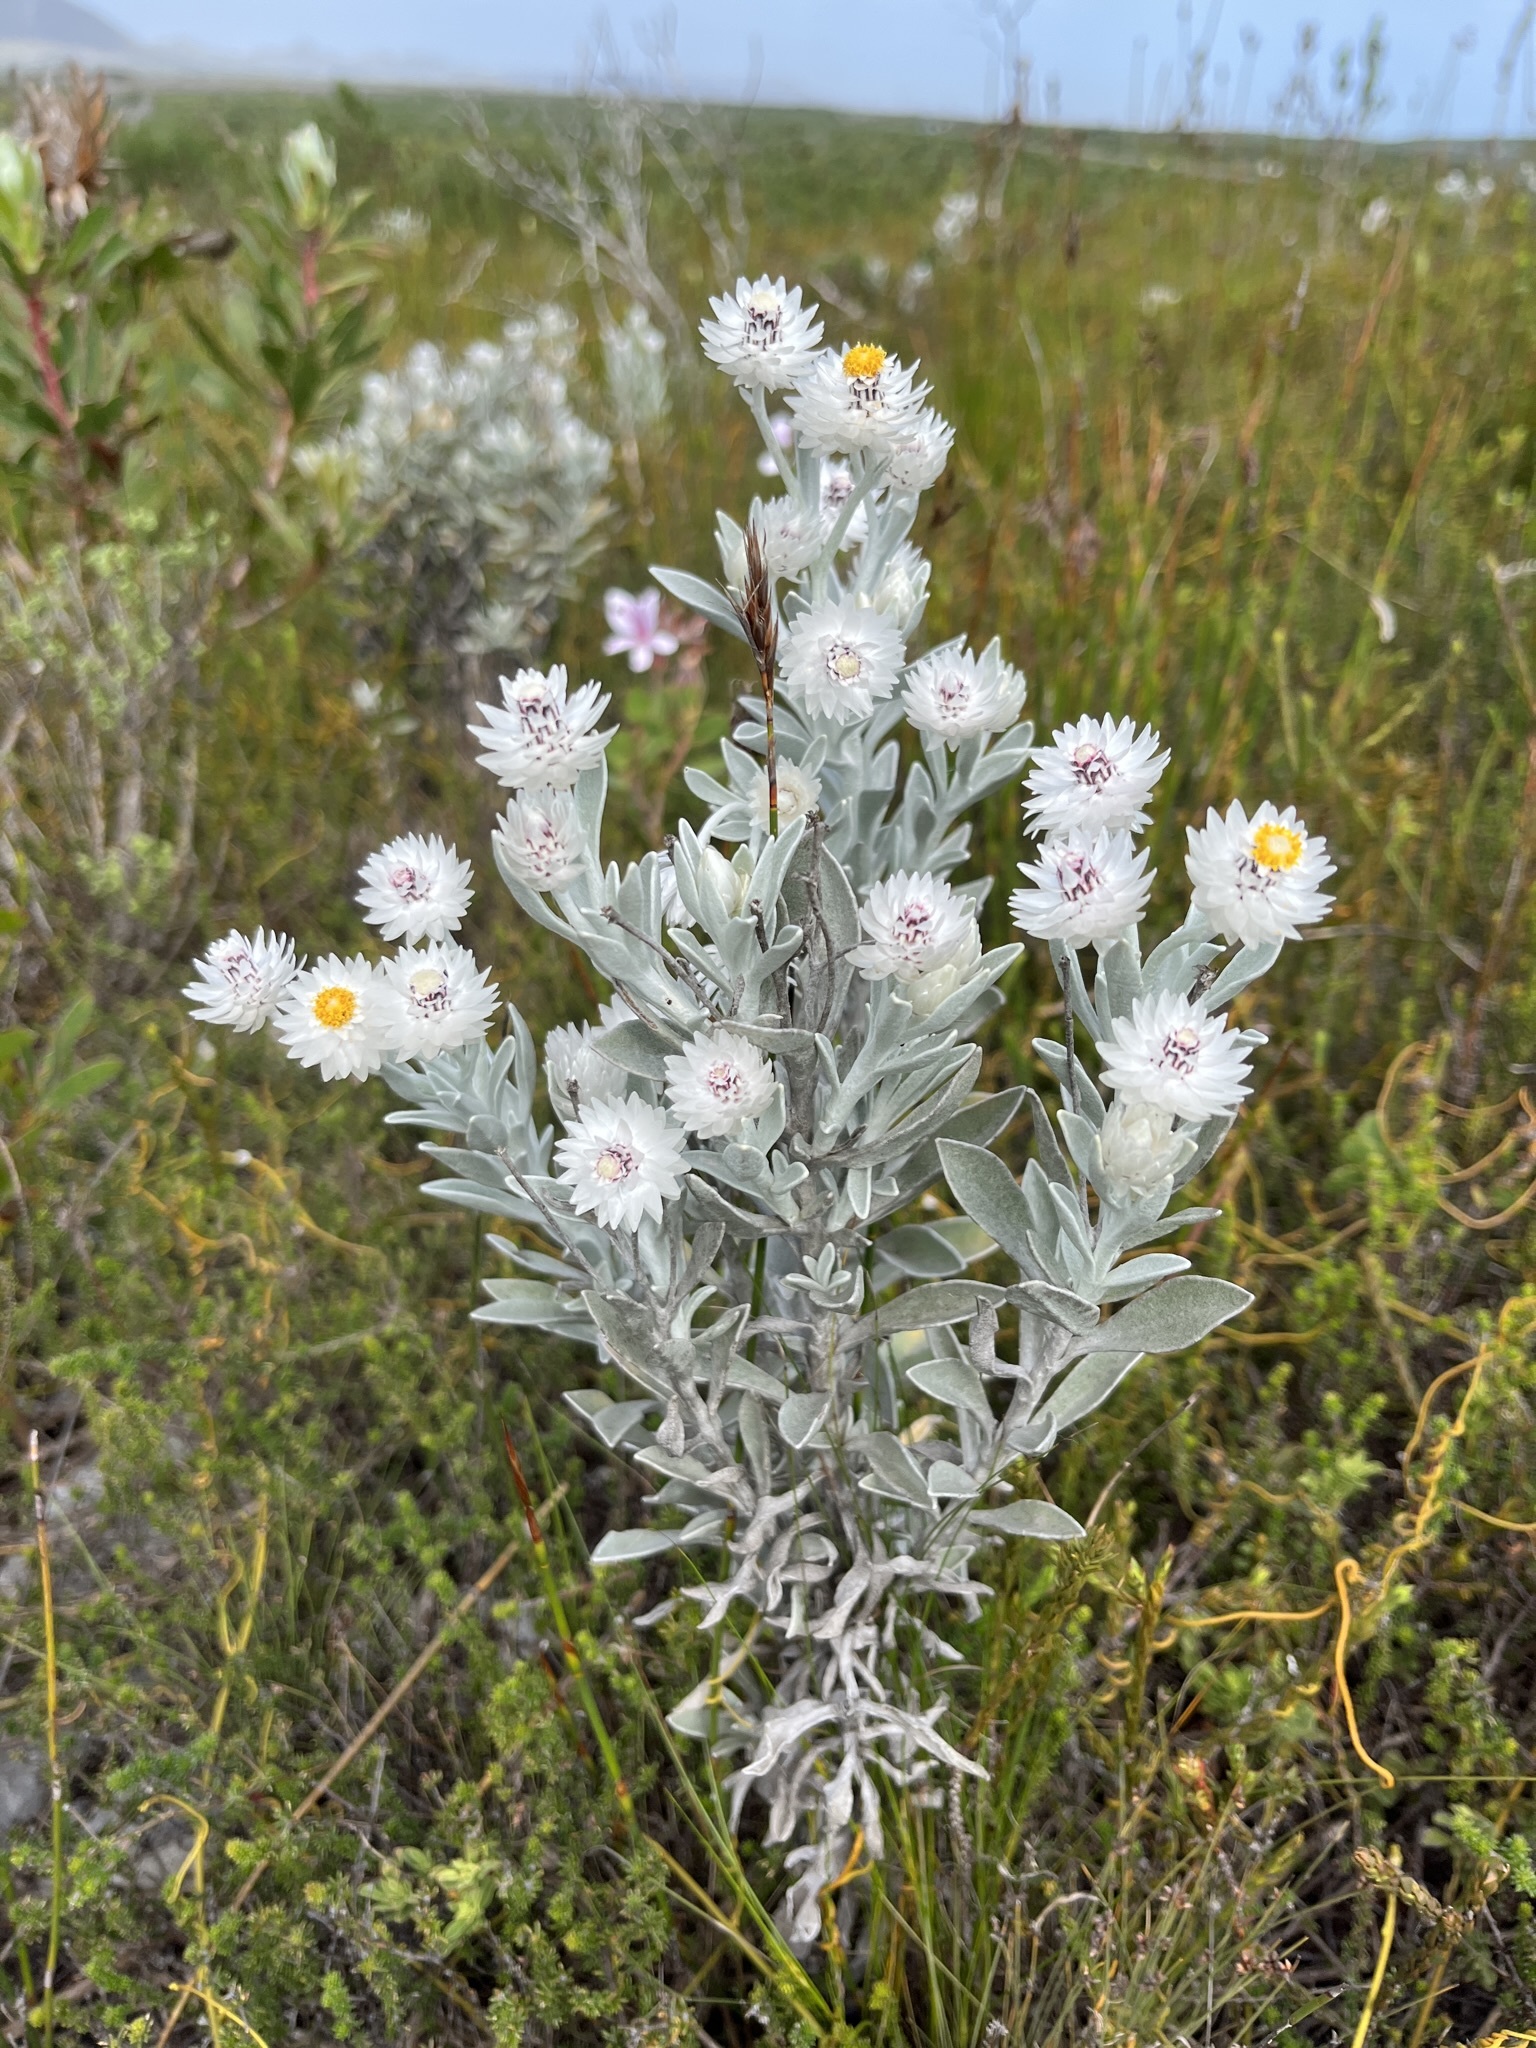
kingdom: Plantae
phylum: Tracheophyta
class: Magnoliopsida
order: Asterales
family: Asteraceae
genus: Syncarpha
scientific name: Syncarpha argyropsis
